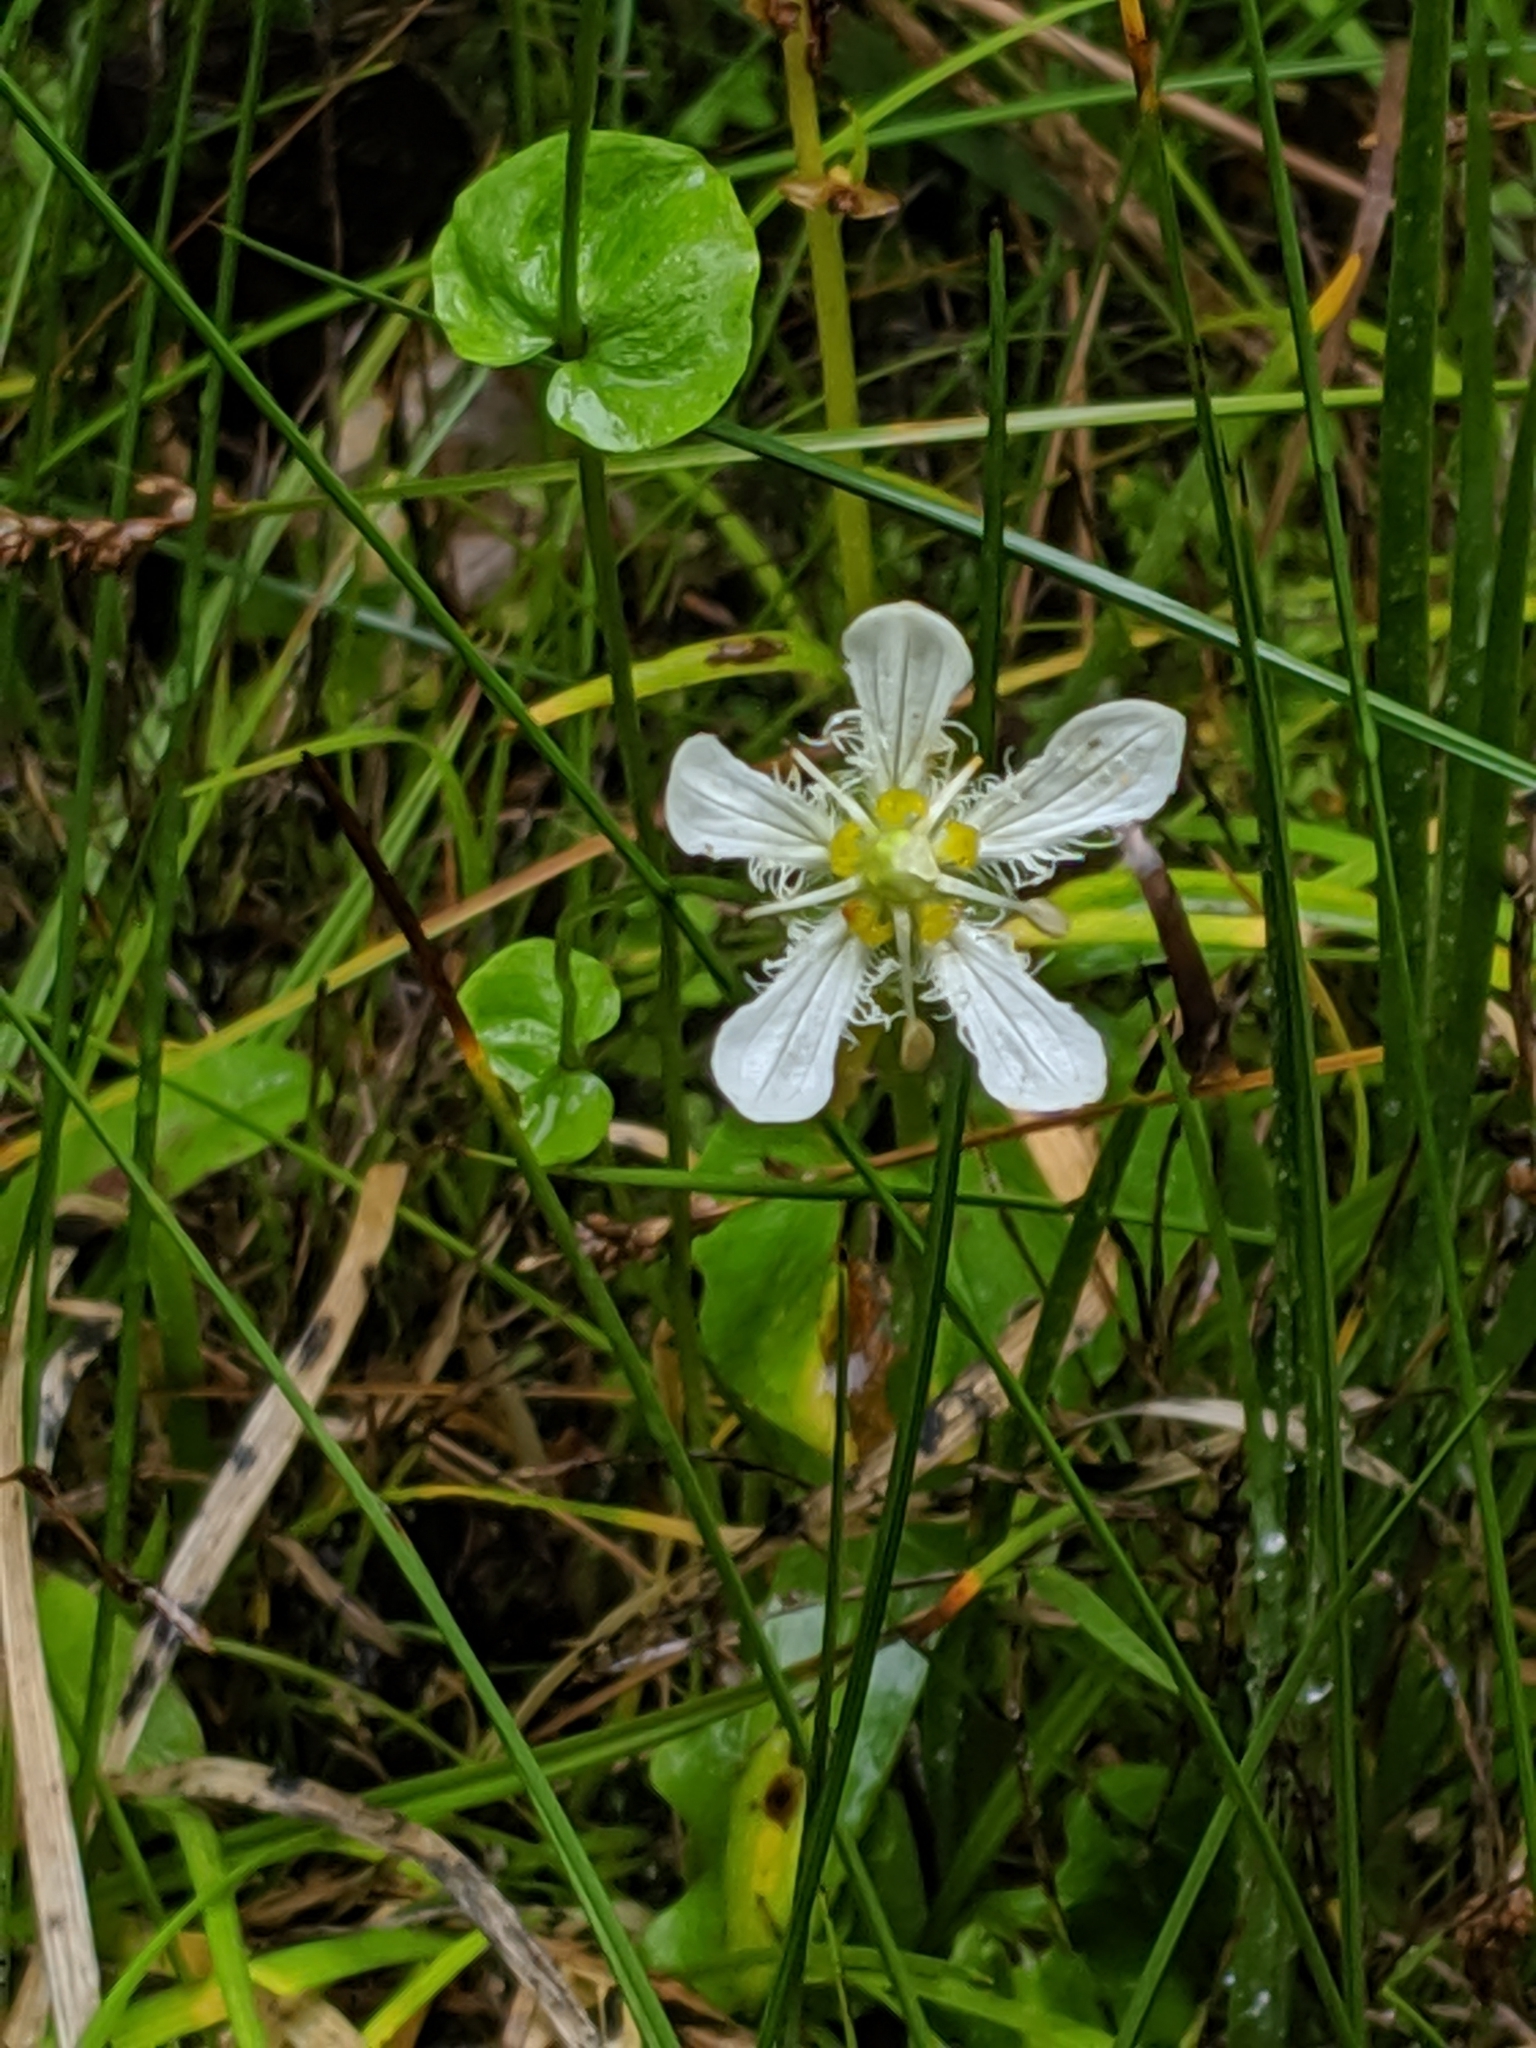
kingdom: Plantae
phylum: Tracheophyta
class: Magnoliopsida
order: Celastrales
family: Parnassiaceae
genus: Parnassia
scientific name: Parnassia fimbriata
